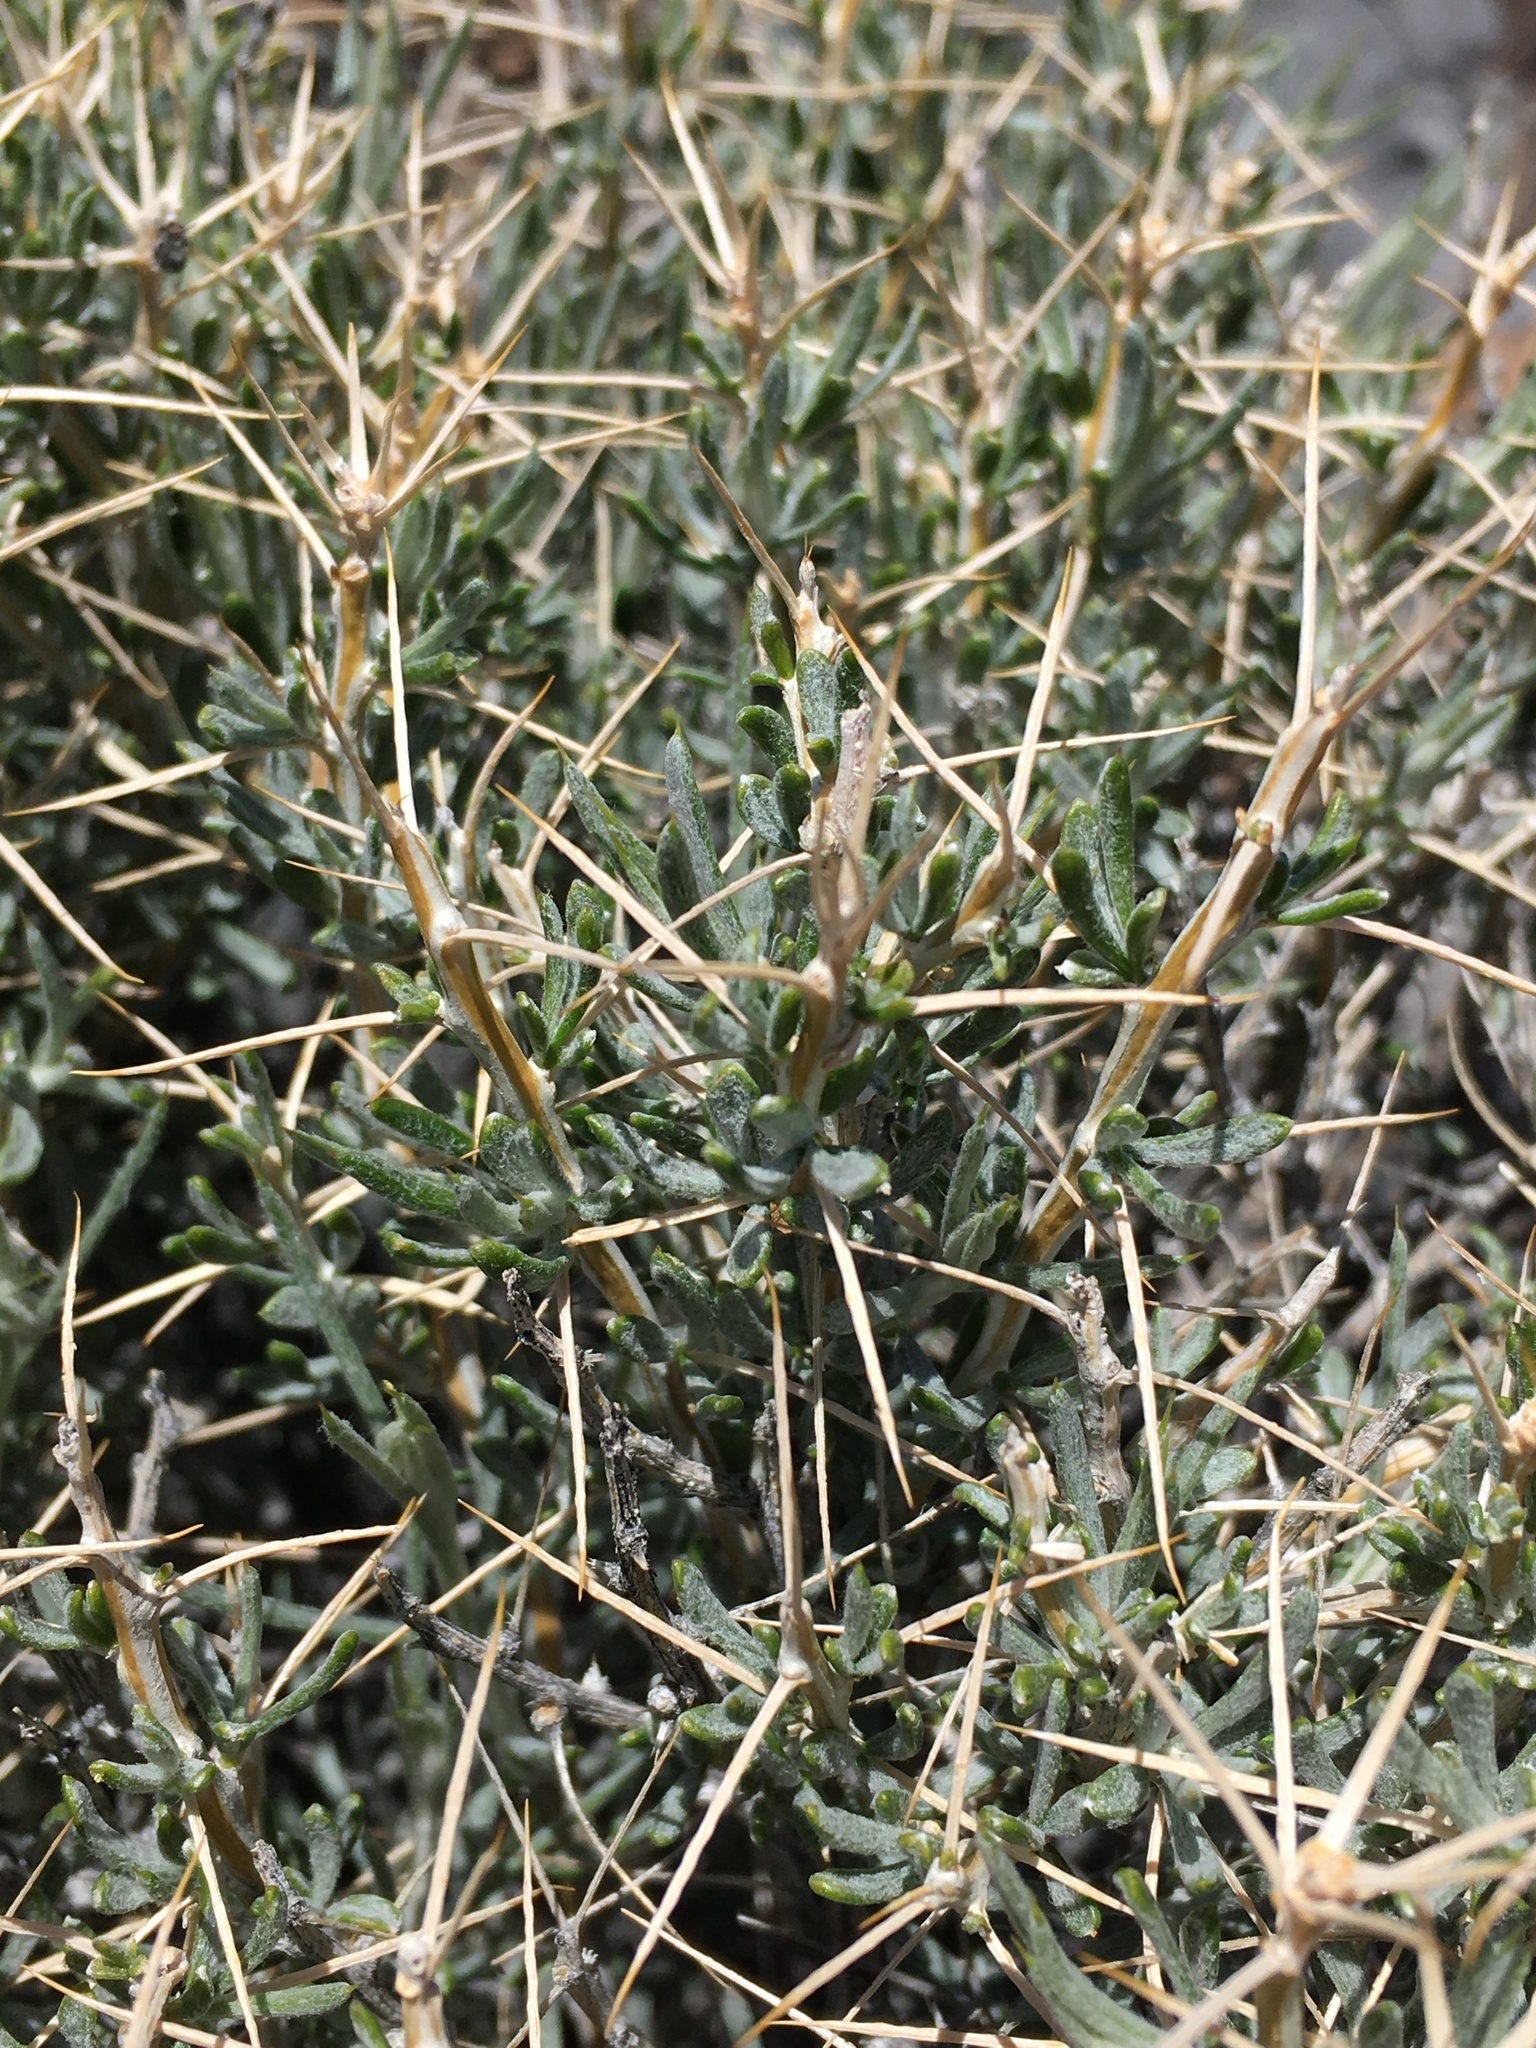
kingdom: Plantae
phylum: Tracheophyta
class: Magnoliopsida
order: Asterales
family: Asteraceae
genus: Tetradymia
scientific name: Tetradymia stenolepis
